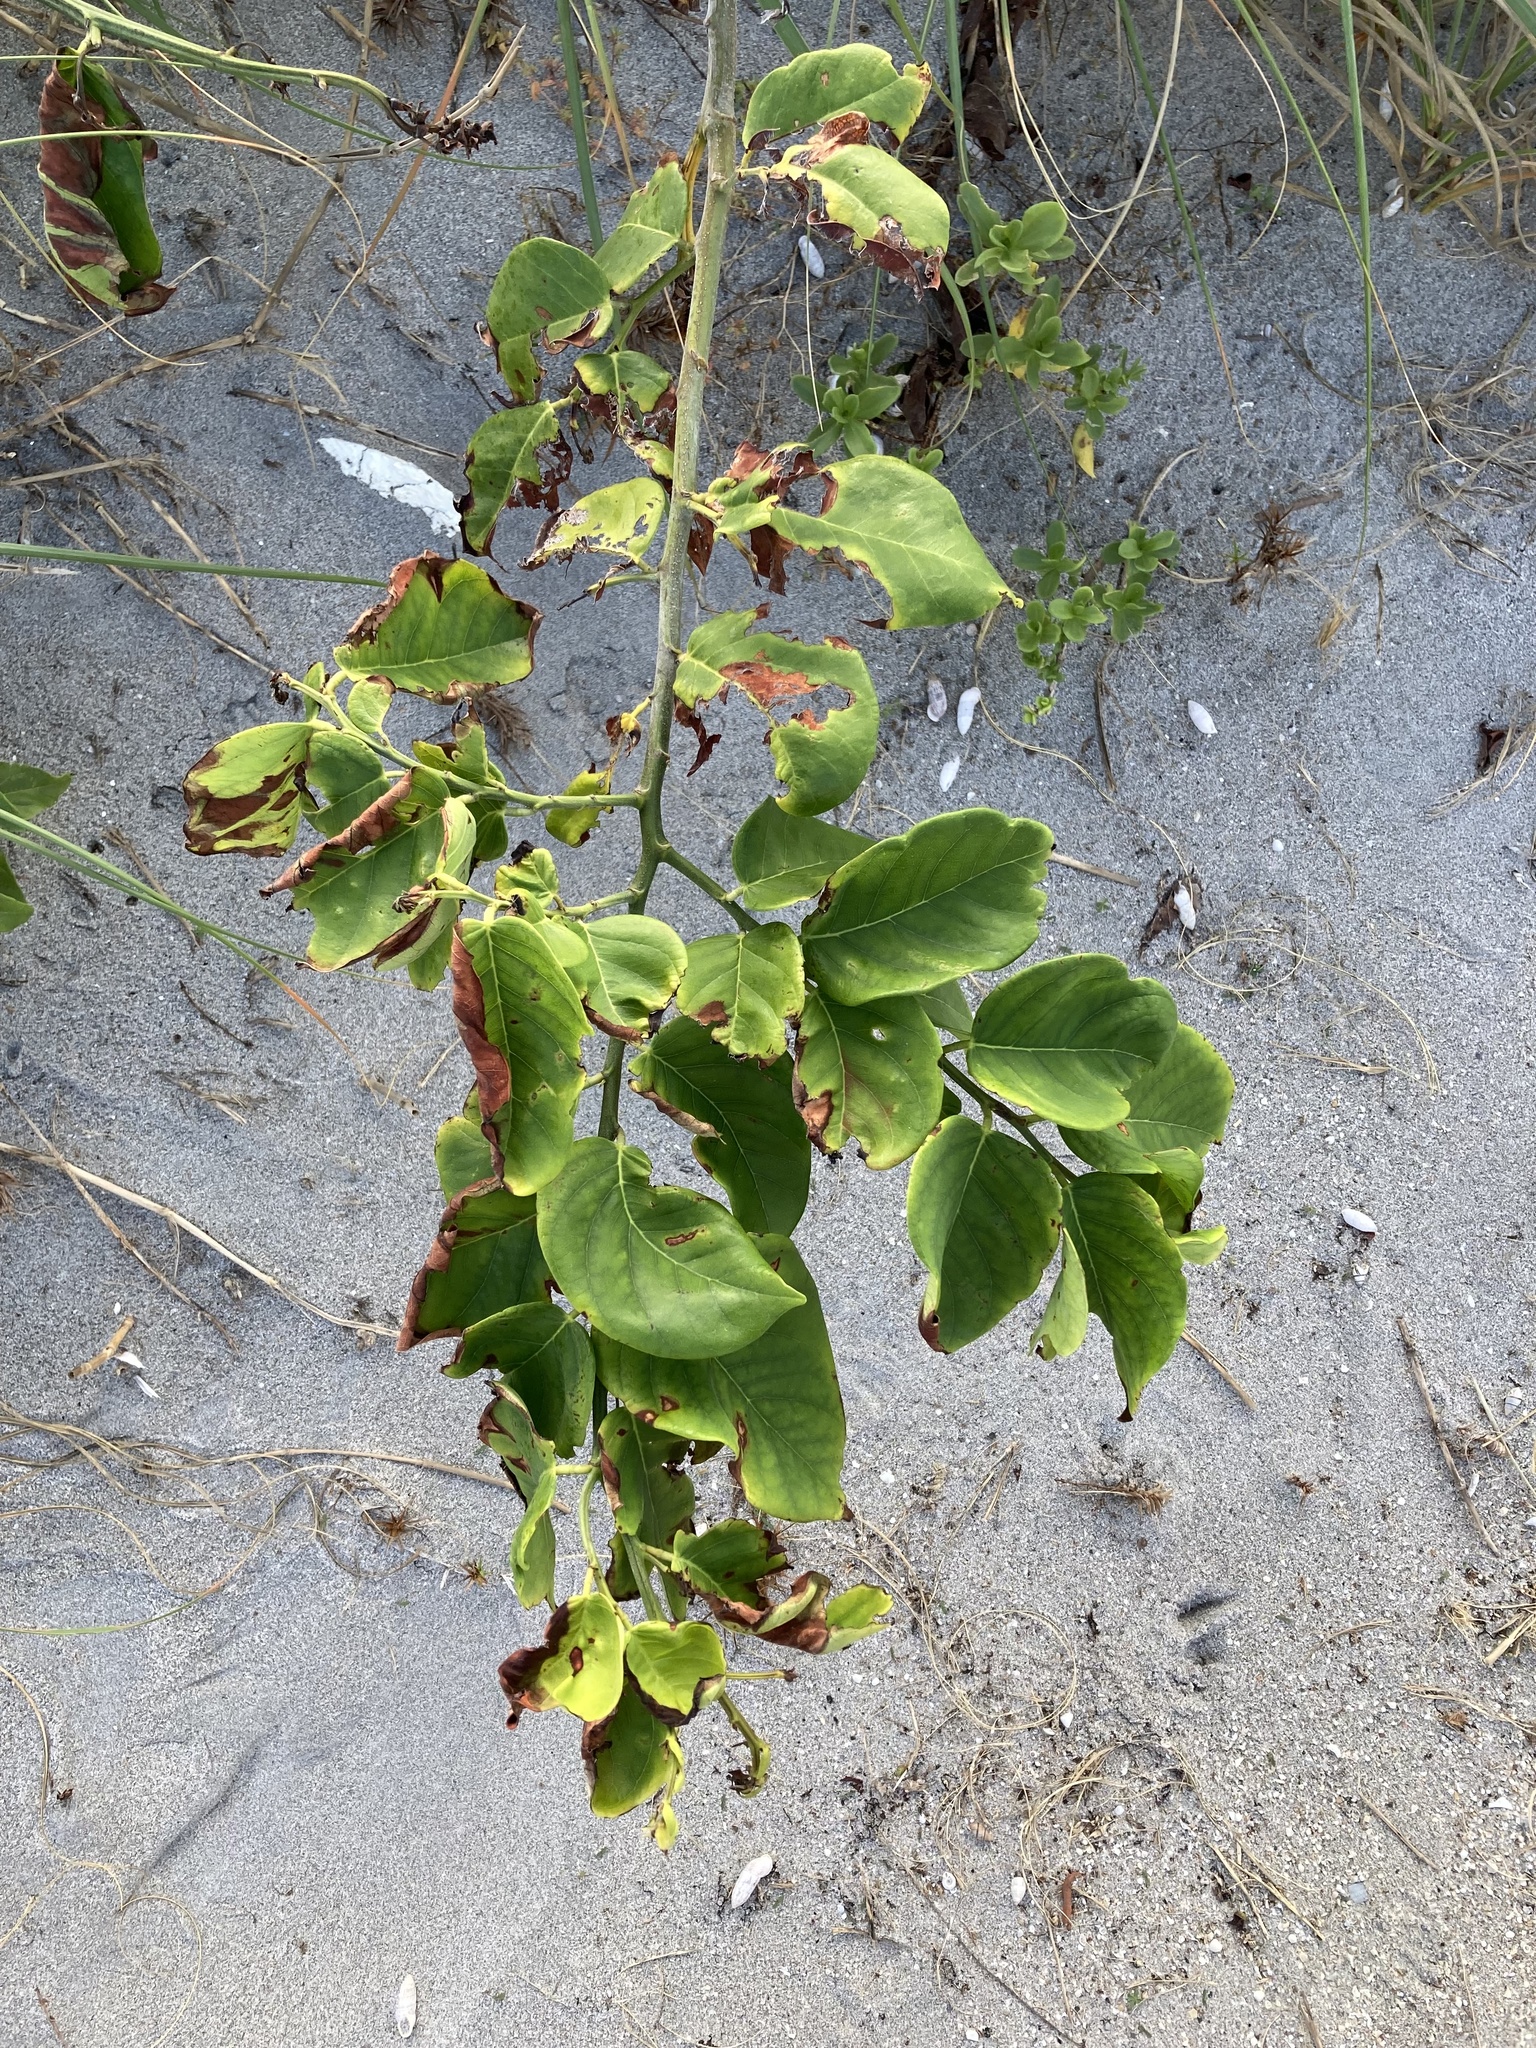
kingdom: Plantae
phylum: Tracheophyta
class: Magnoliopsida
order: Fabales
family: Fabaceae
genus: Dalbergia
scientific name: Dalbergia ecastaphyllum
